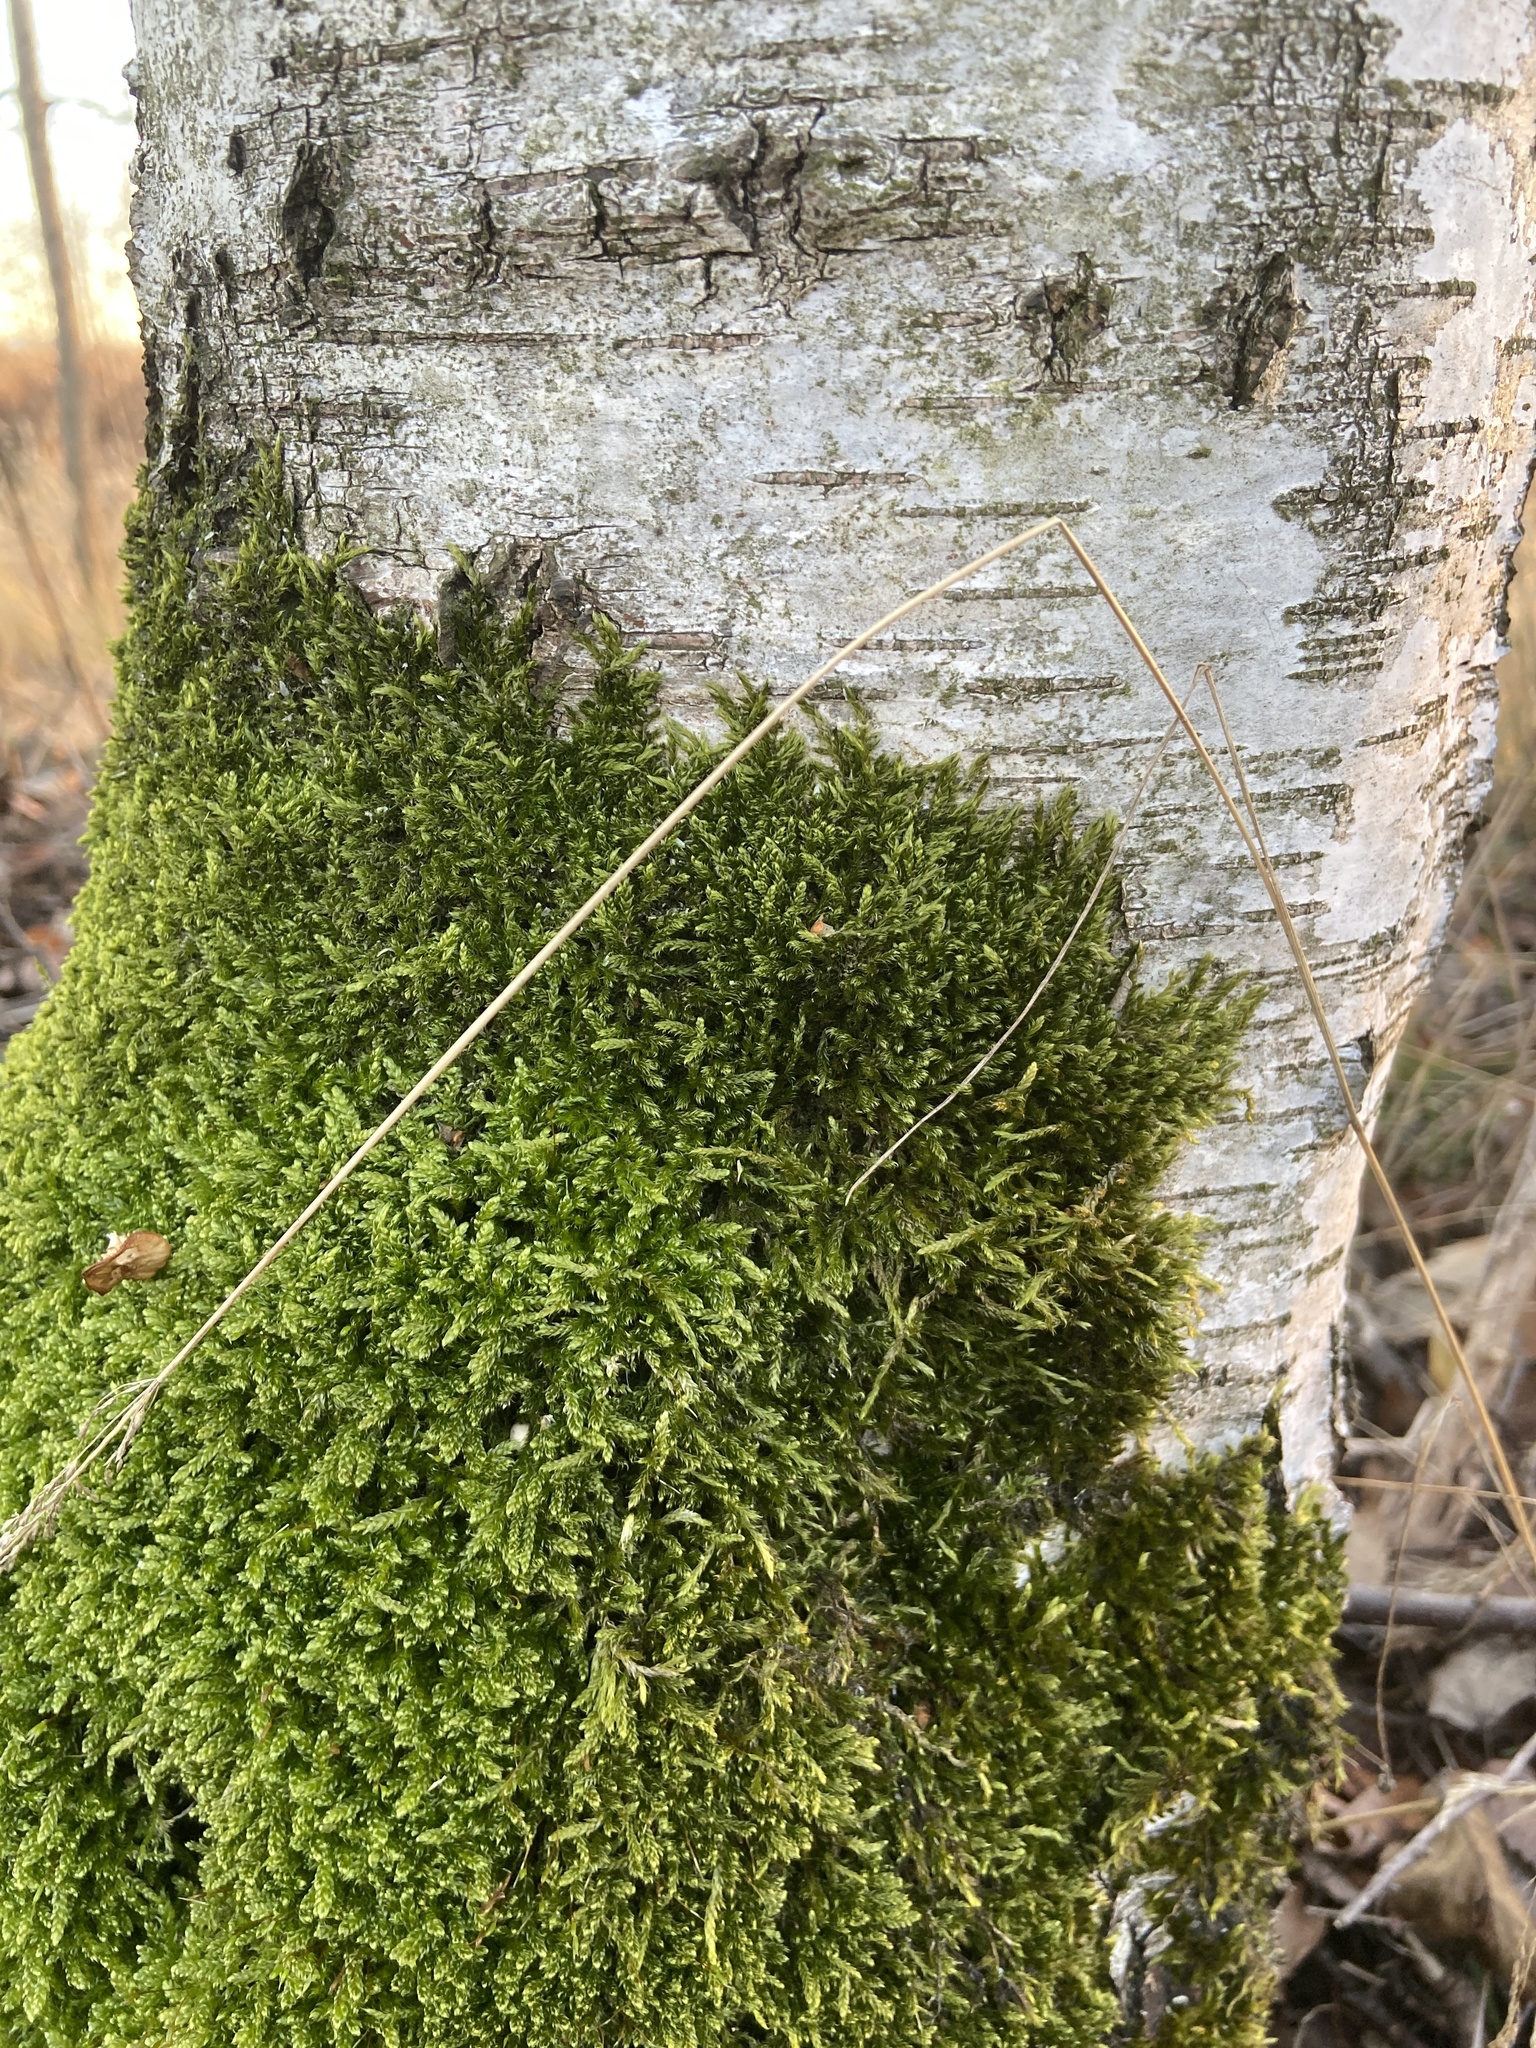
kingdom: Plantae
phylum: Bryophyta
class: Bryopsida
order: Hypnales
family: Hypnaceae
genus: Hypnum
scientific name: Hypnum cupressiforme
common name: Cypress-leaved plait-moss
